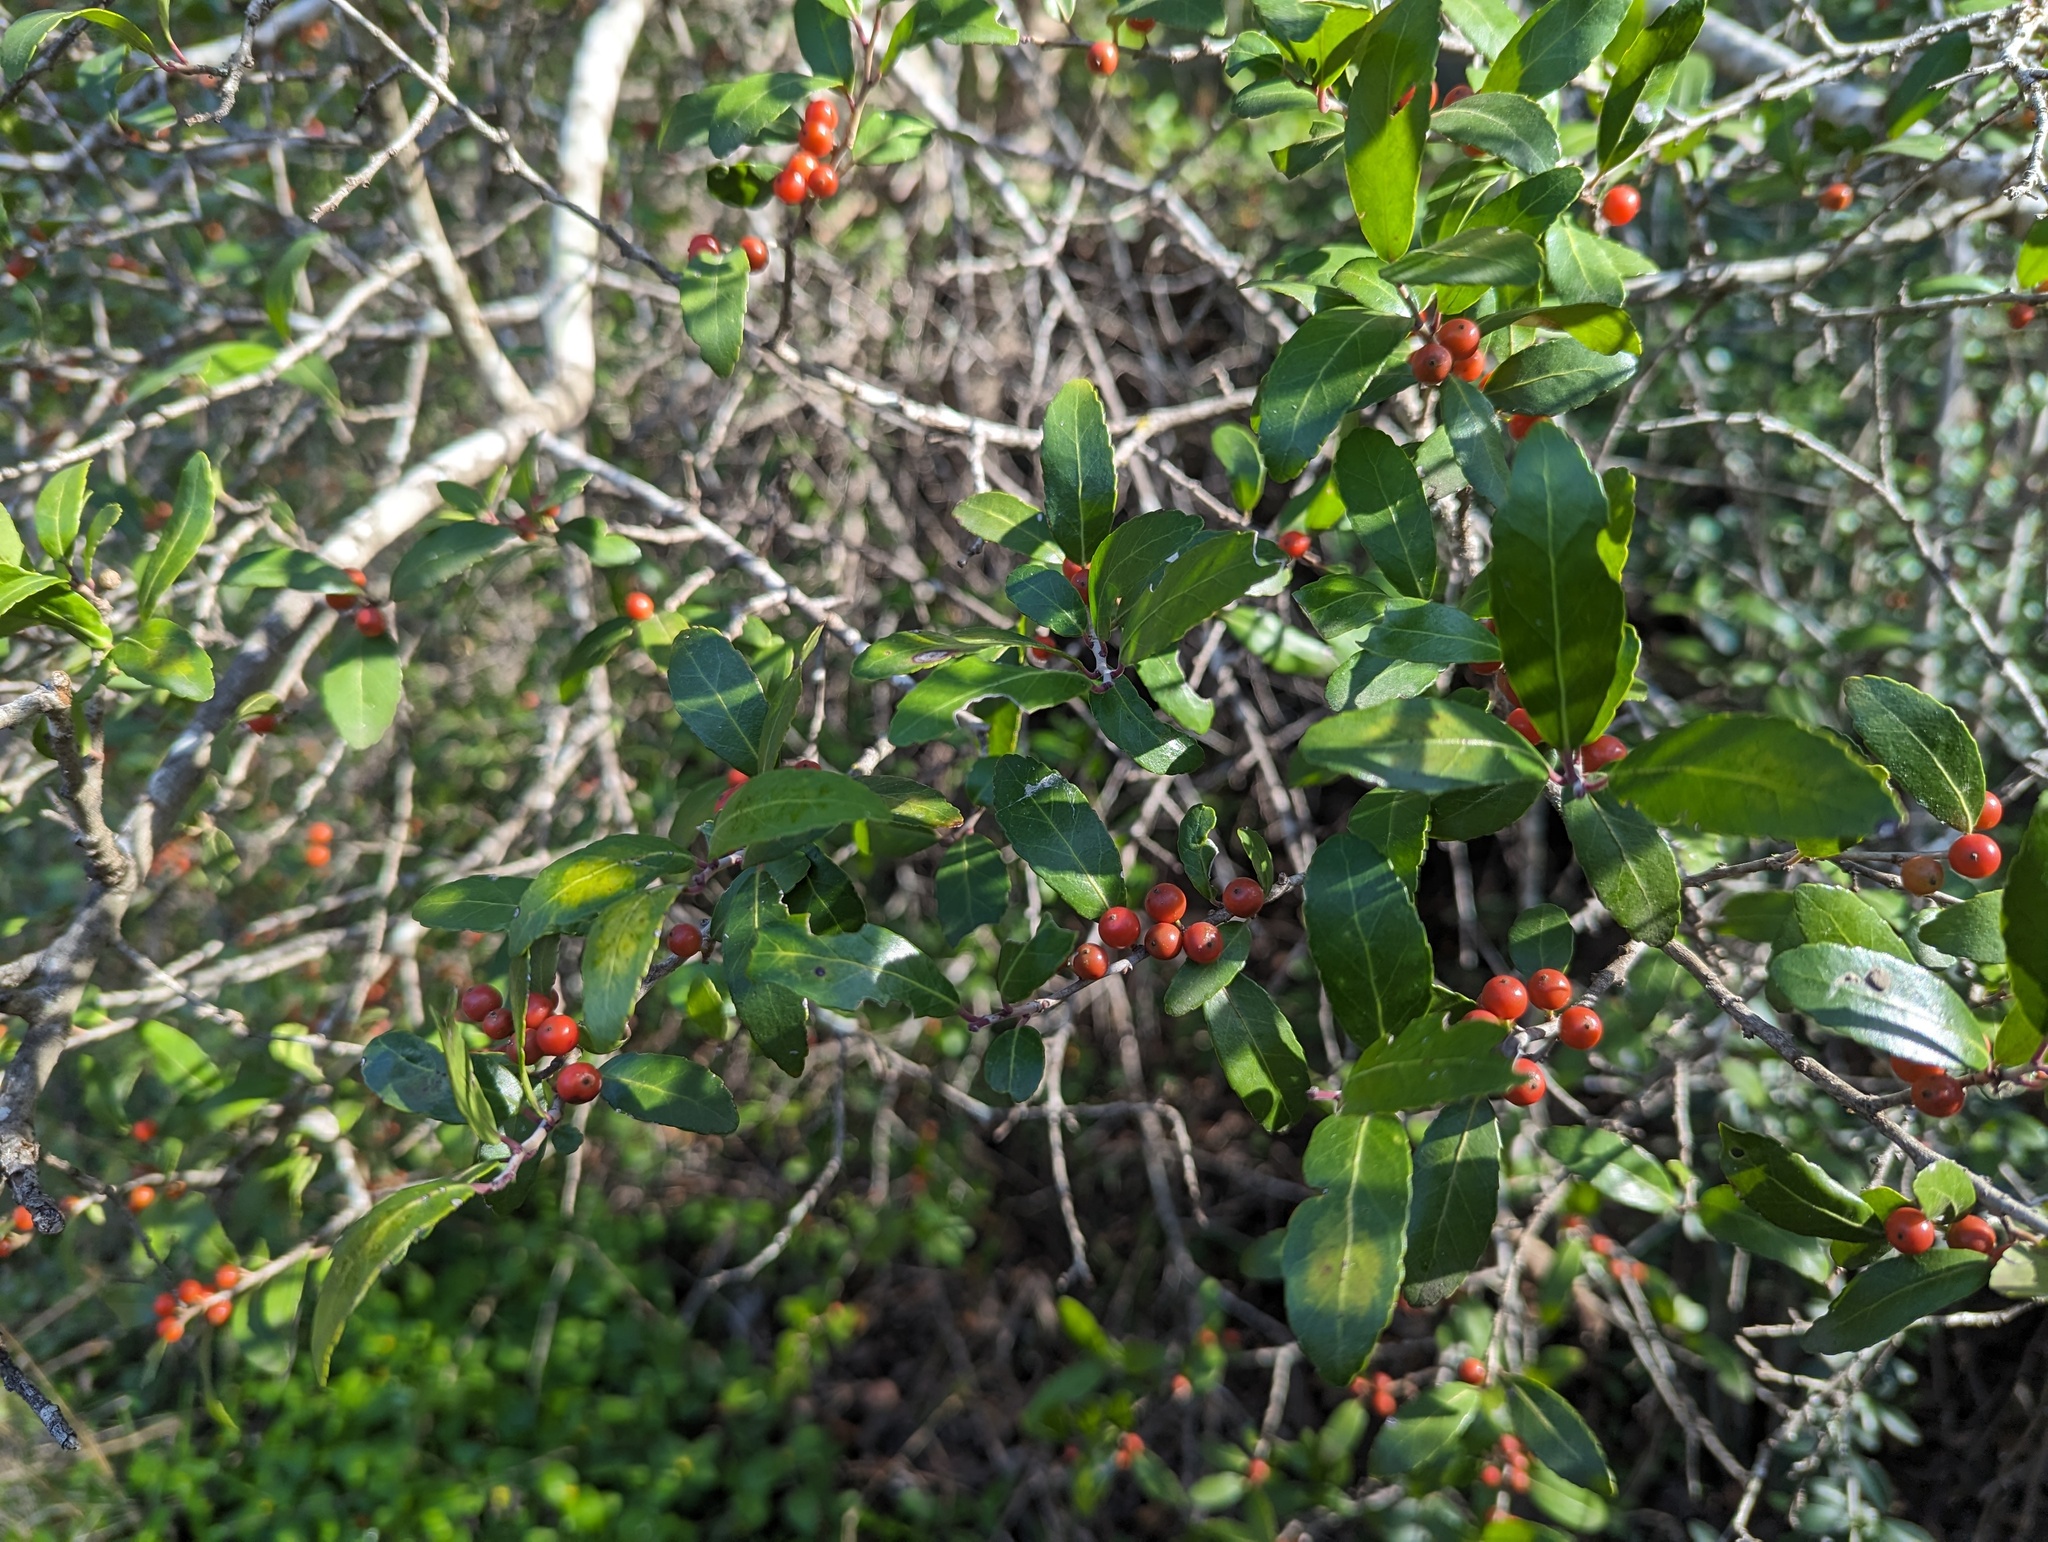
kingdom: Plantae
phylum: Tracheophyta
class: Magnoliopsida
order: Aquifoliales
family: Aquifoliaceae
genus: Ilex
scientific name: Ilex vomitoria
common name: Yaupon holly
